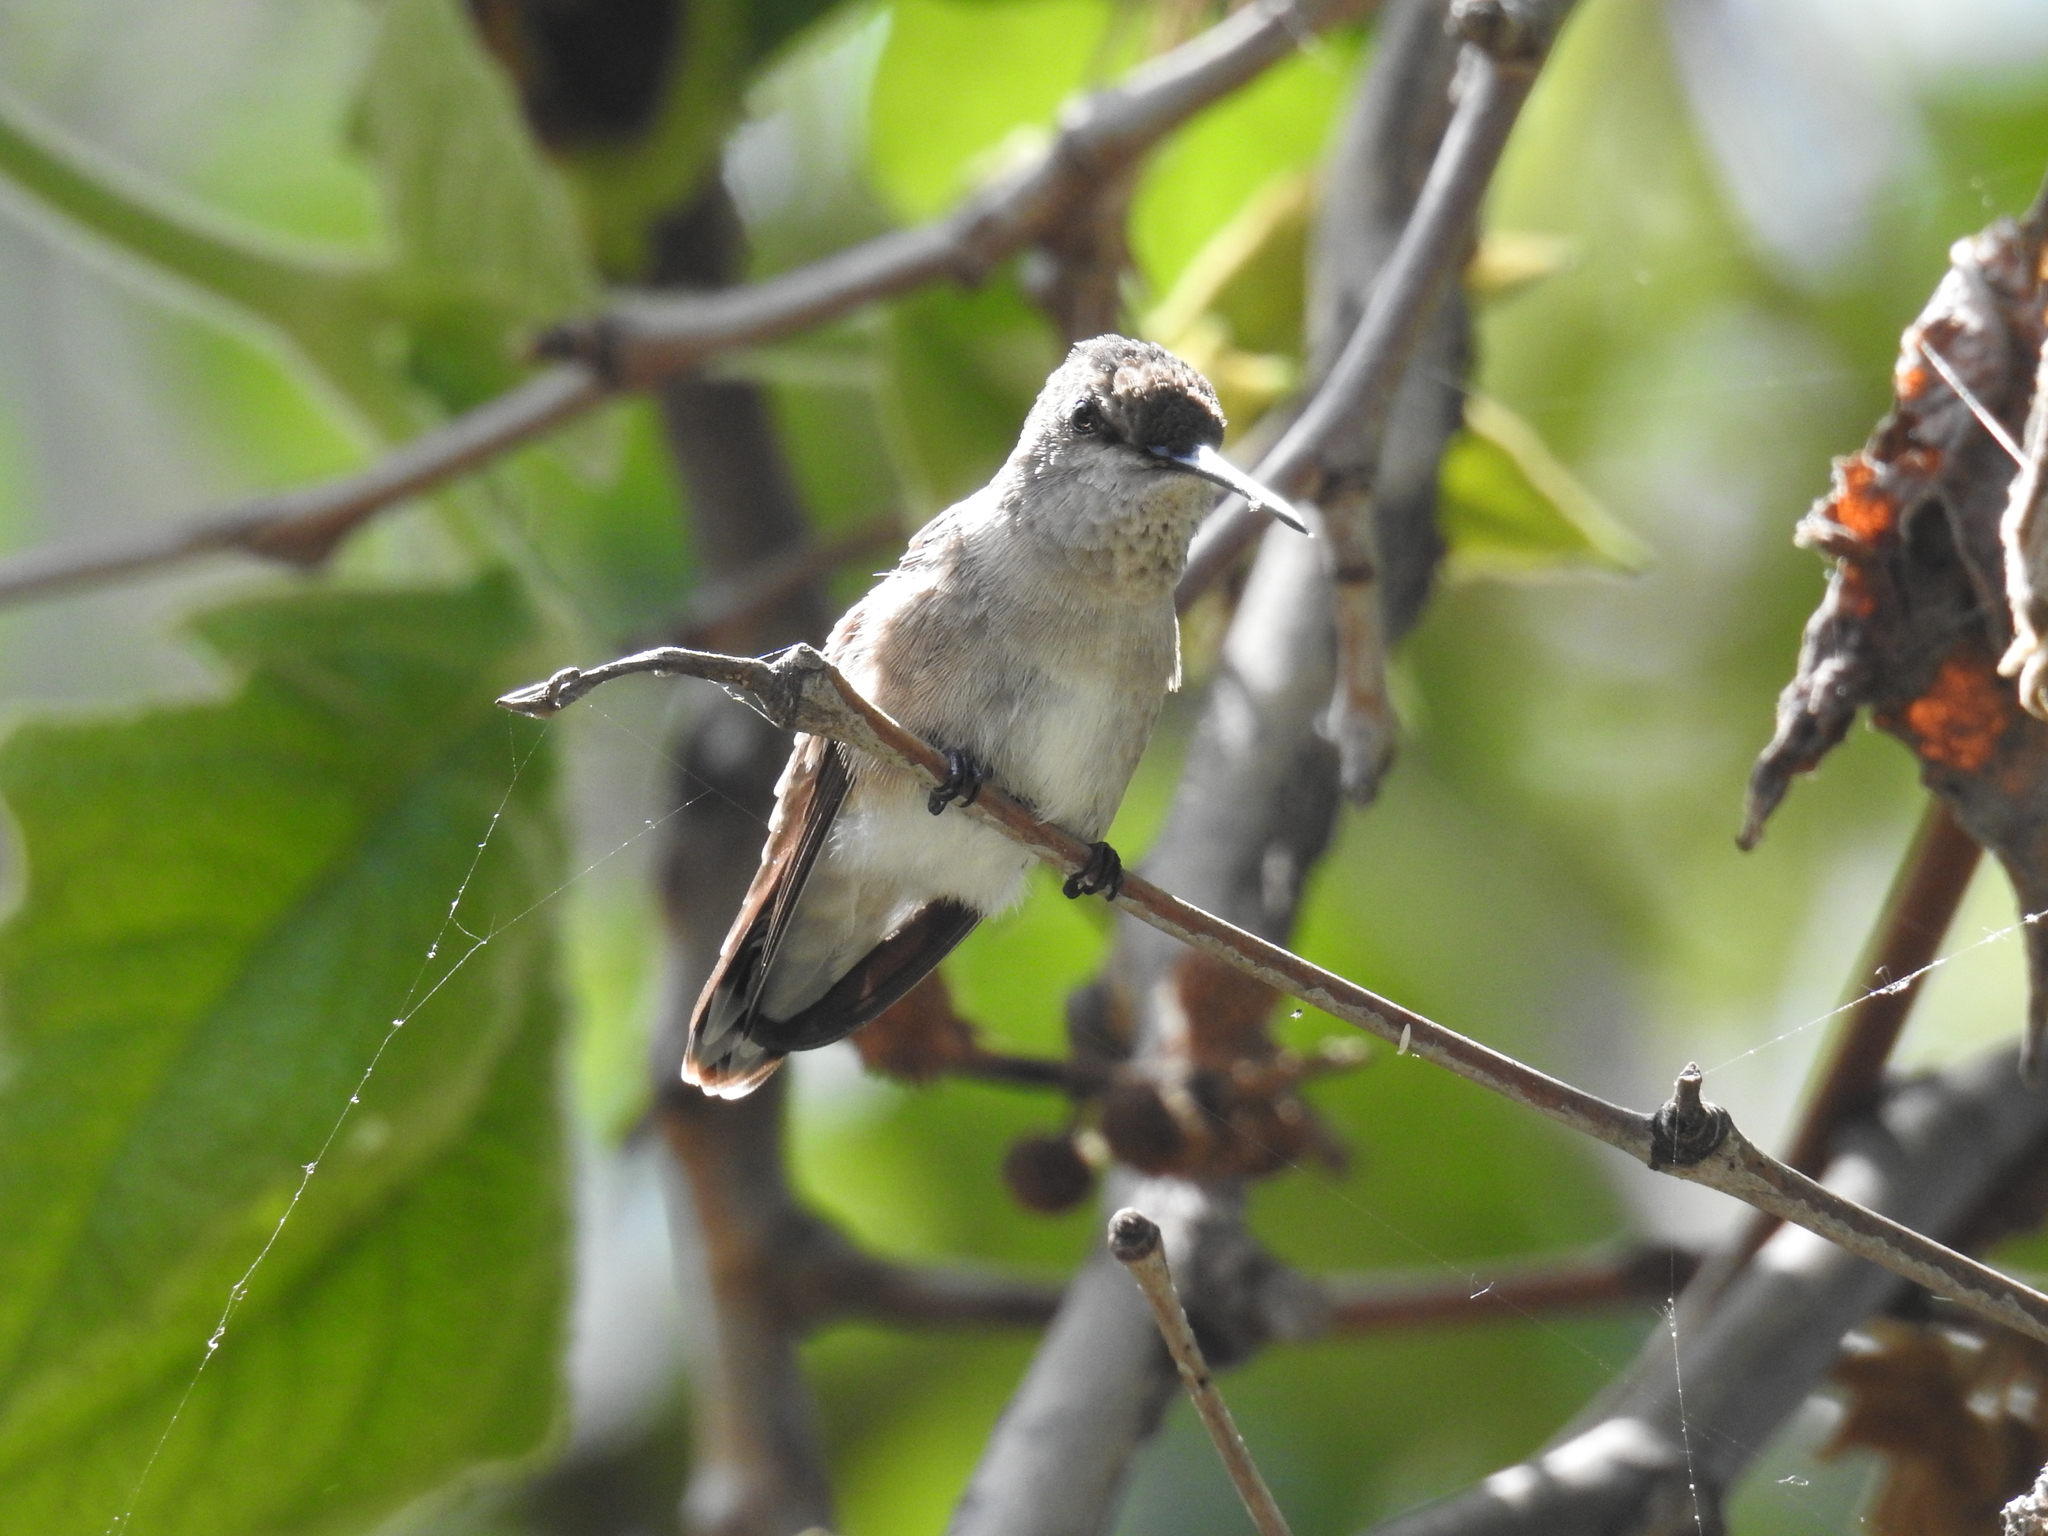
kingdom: Animalia
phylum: Chordata
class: Aves
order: Apodiformes
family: Trochilidae
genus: Archilochus
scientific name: Archilochus alexandri
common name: Black-chinned hummingbird
